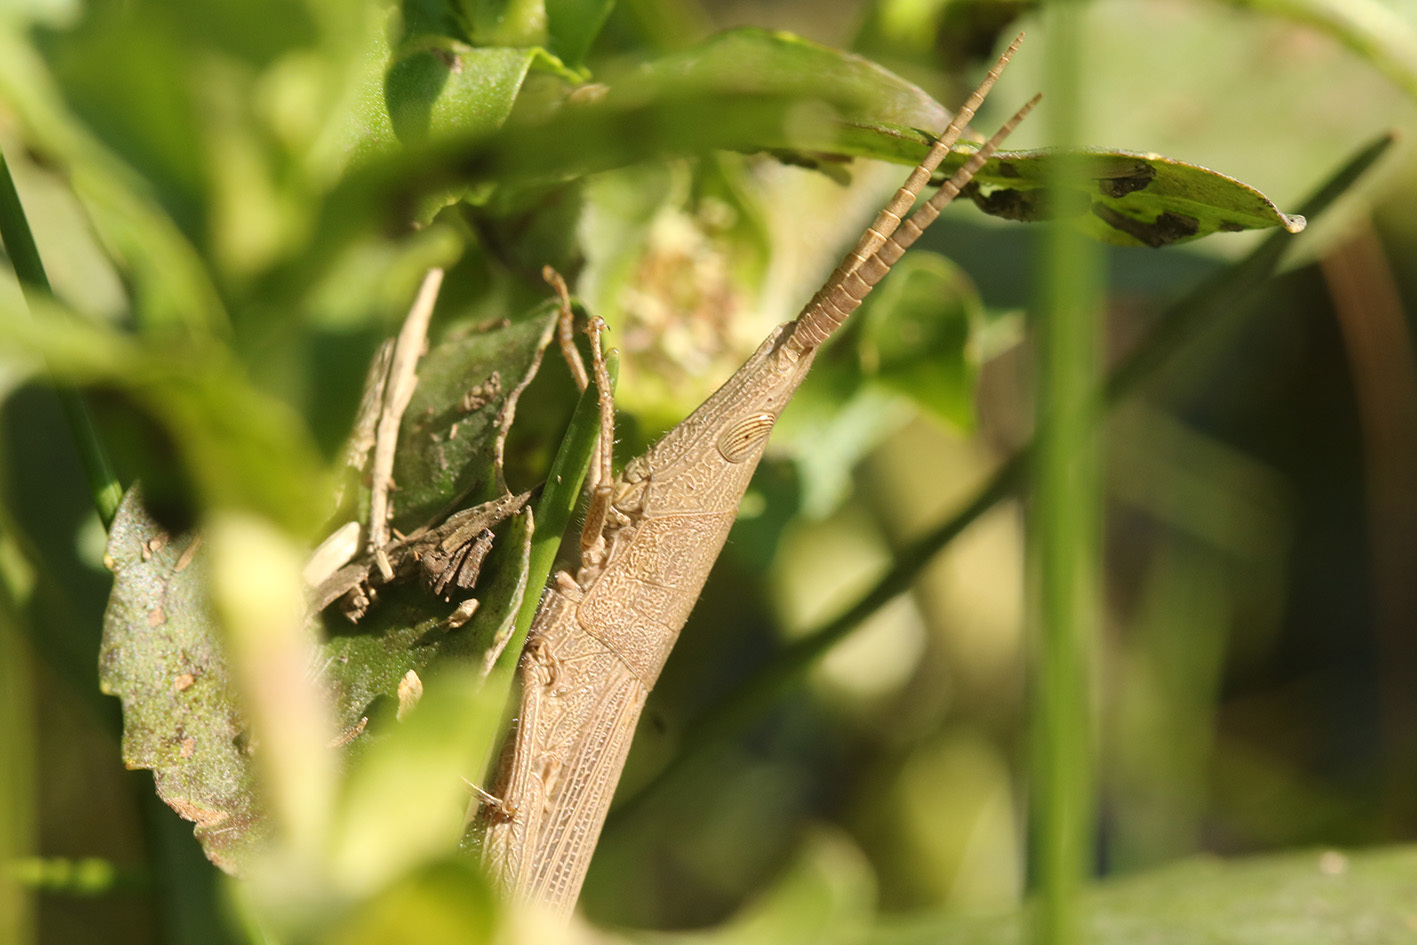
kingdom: Animalia
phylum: Arthropoda
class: Insecta
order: Orthoptera
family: Acrididae
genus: Haroldgrantia
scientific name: Haroldgrantia lignosa
